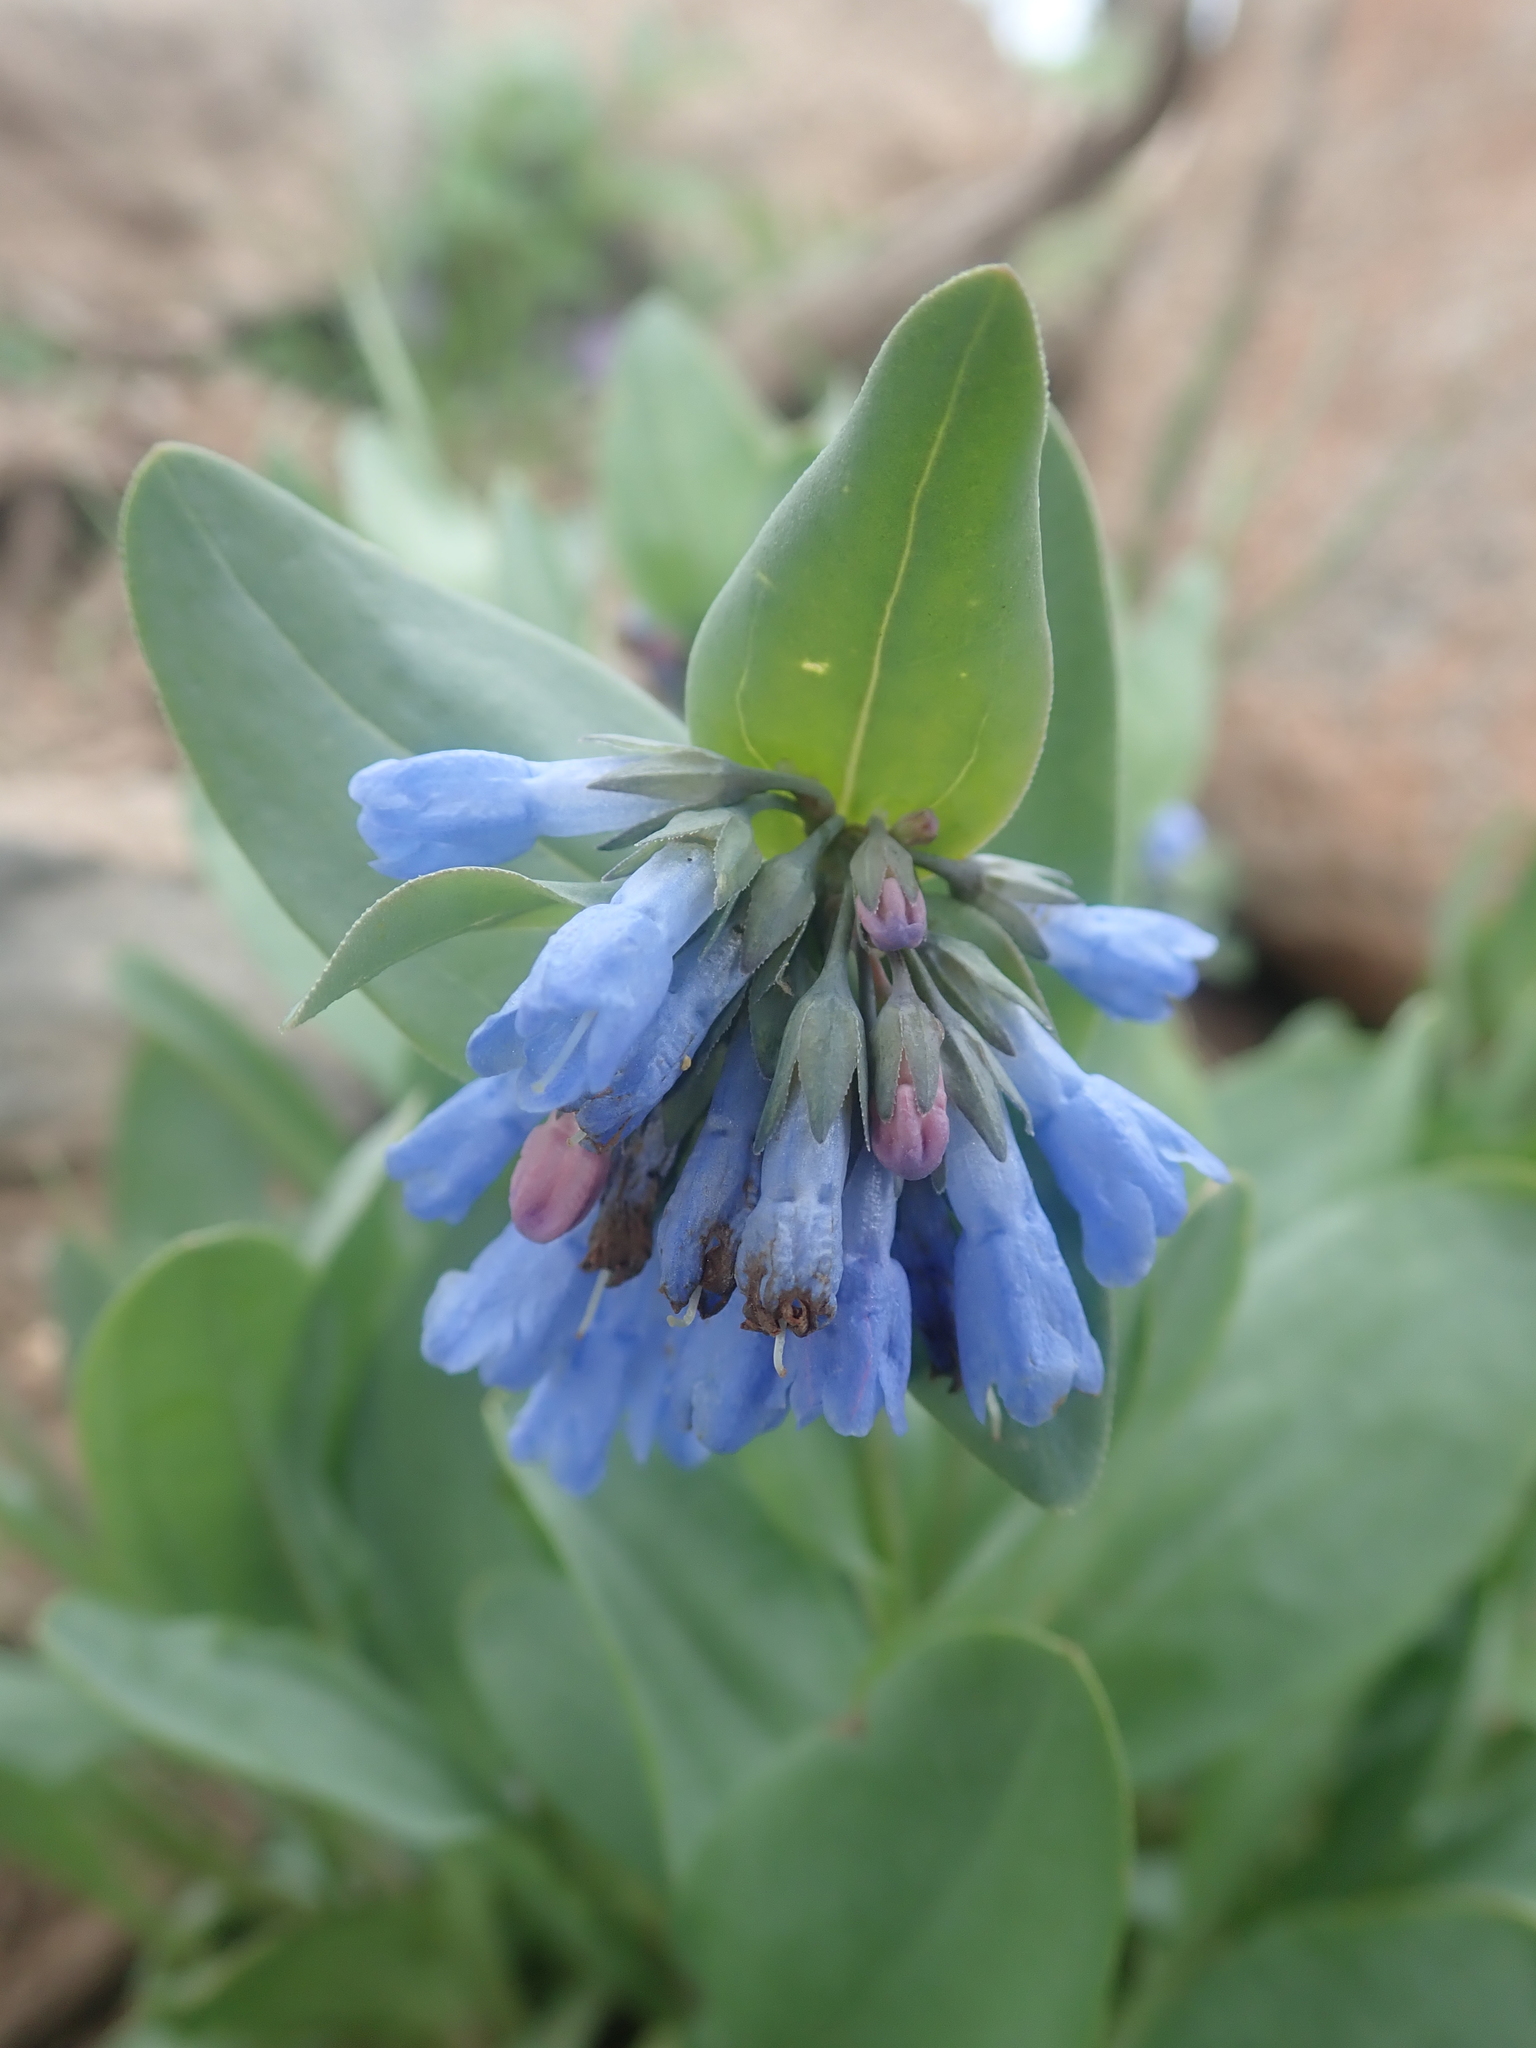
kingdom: Plantae
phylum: Tracheophyta
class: Magnoliopsida
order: Boraginales
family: Boraginaceae
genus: Mertensia
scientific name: Mertensia oblongifolia
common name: Sagebrush bluebells
